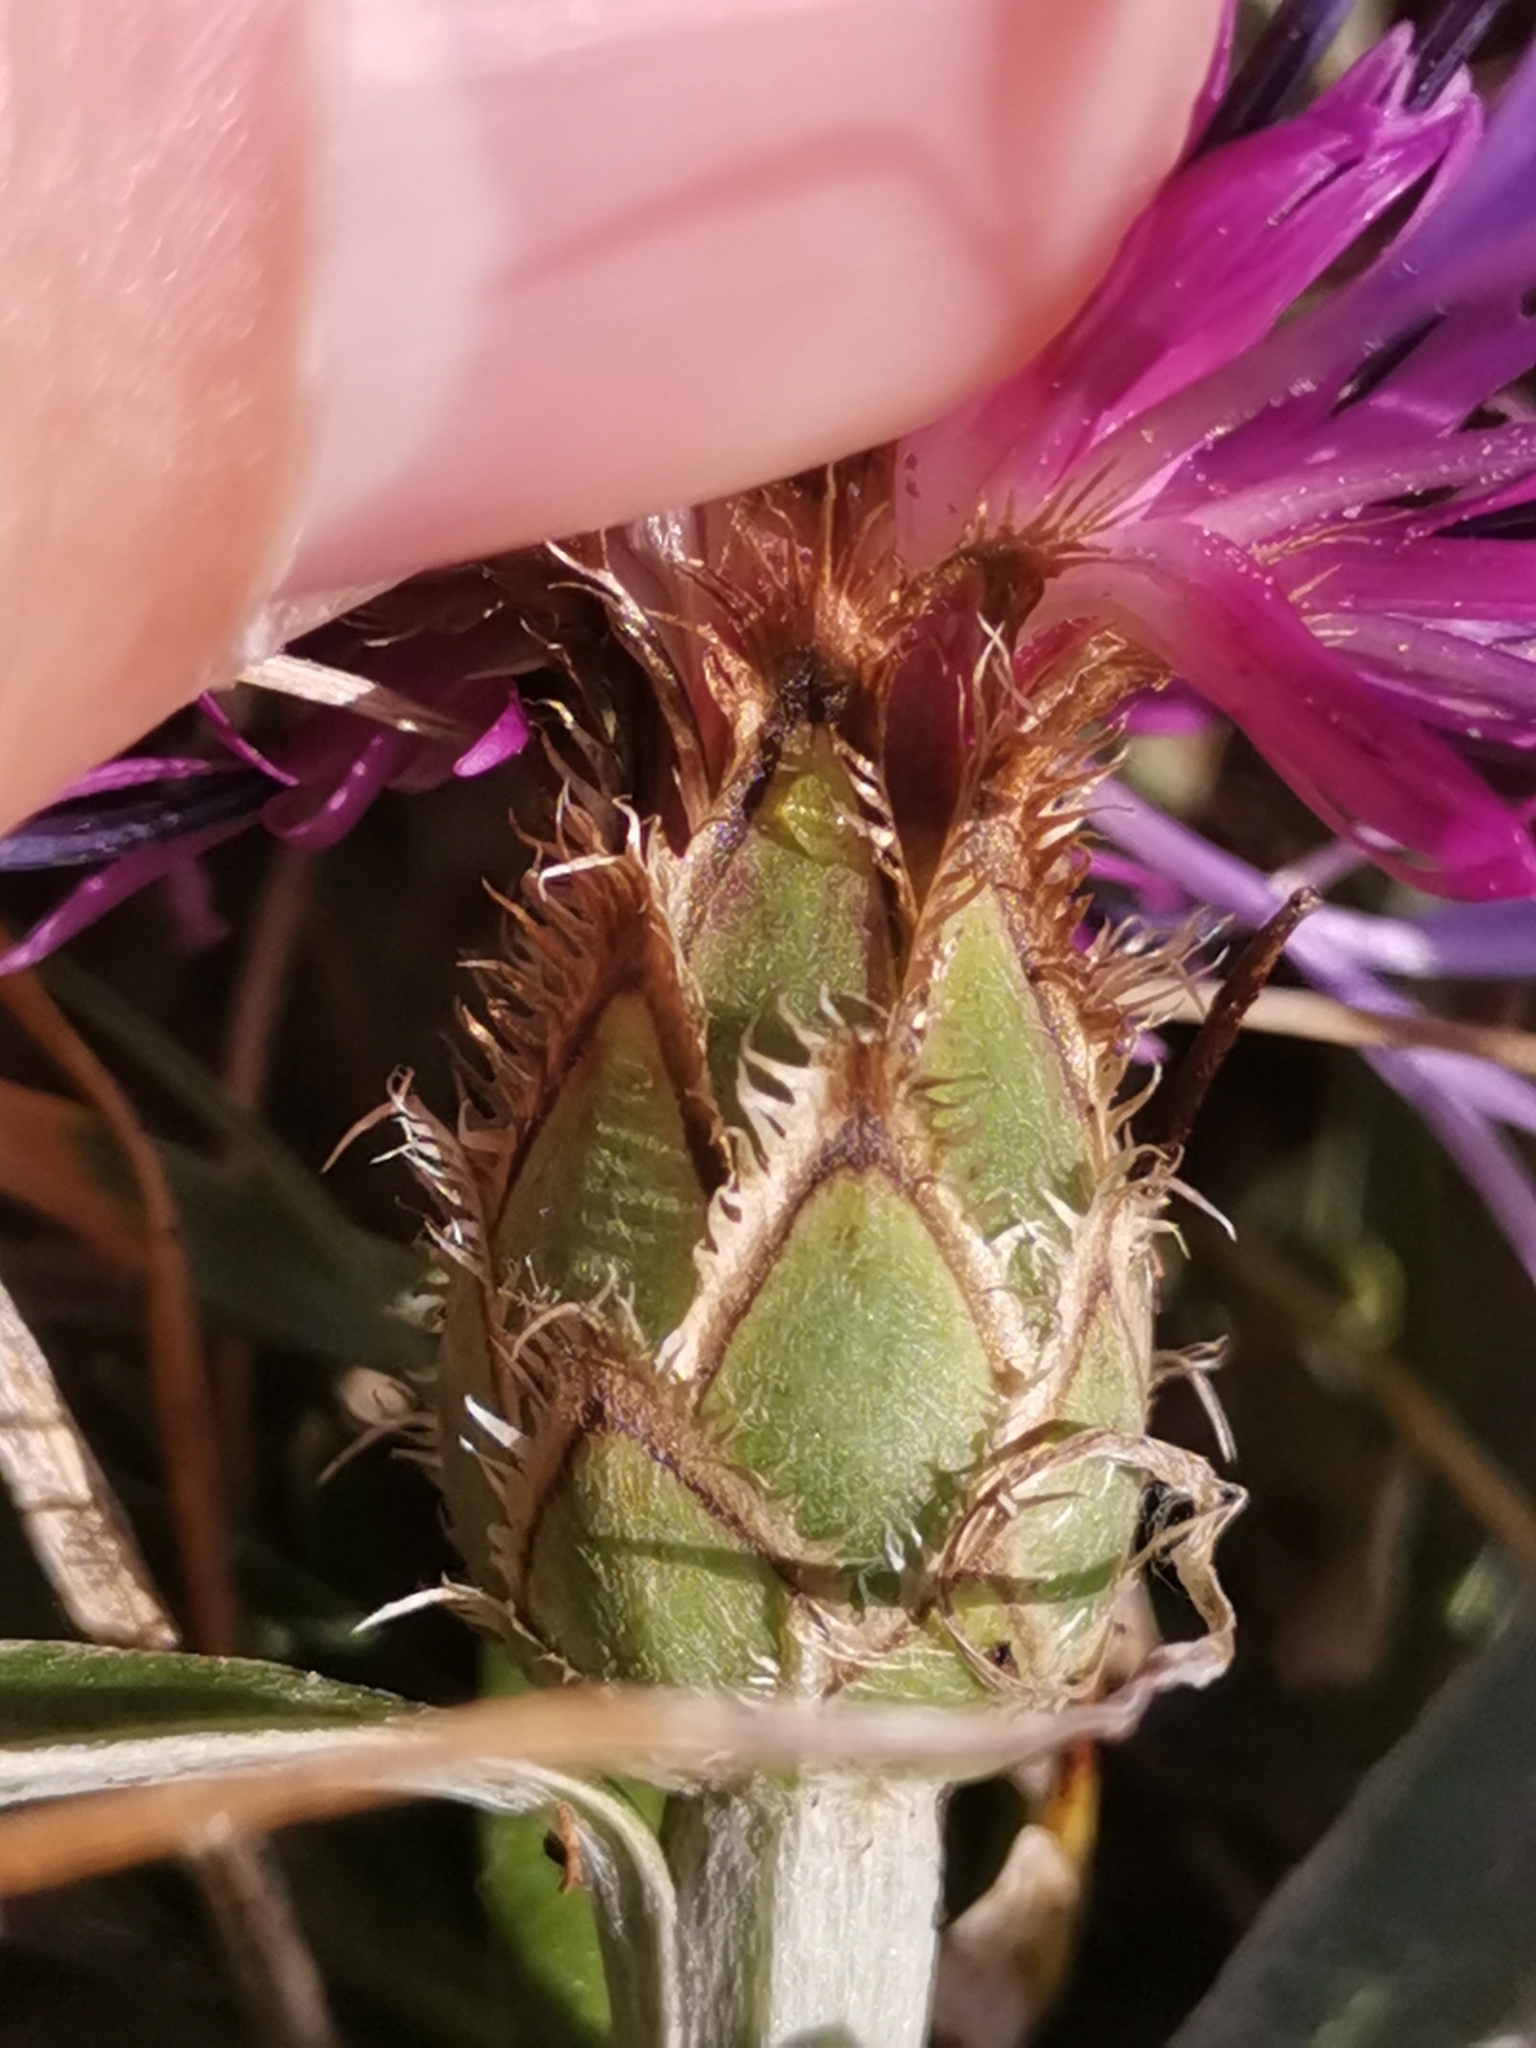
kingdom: Plantae
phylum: Tracheophyta
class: Magnoliopsida
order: Asterales
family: Asteraceae
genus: Centaurea
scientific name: Centaurea triumfettii
